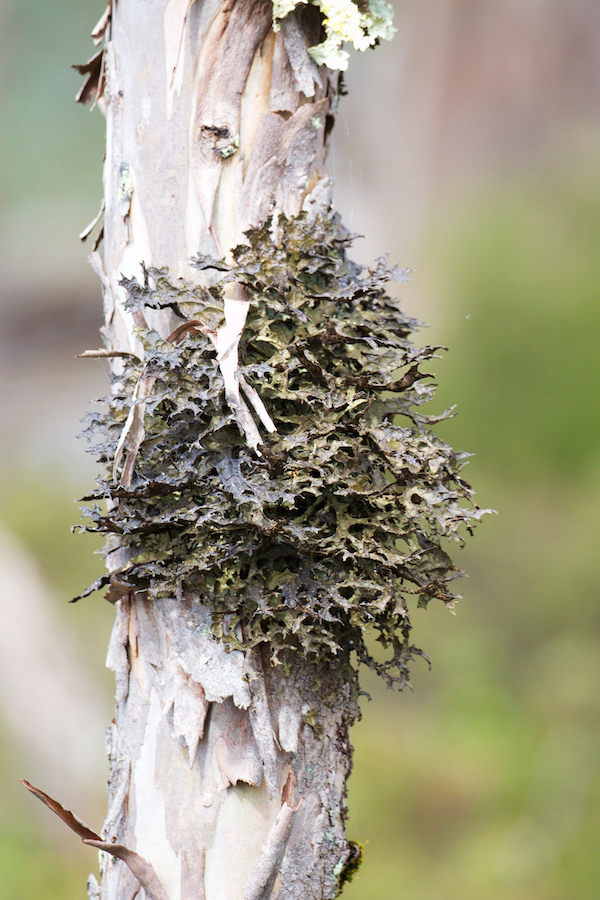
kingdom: Fungi
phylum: Ascomycota
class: Lecanoromycetes
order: Peltigerales
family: Lobariaceae
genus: Pseudocyphellaria
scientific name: Pseudocyphellaria billardierei
